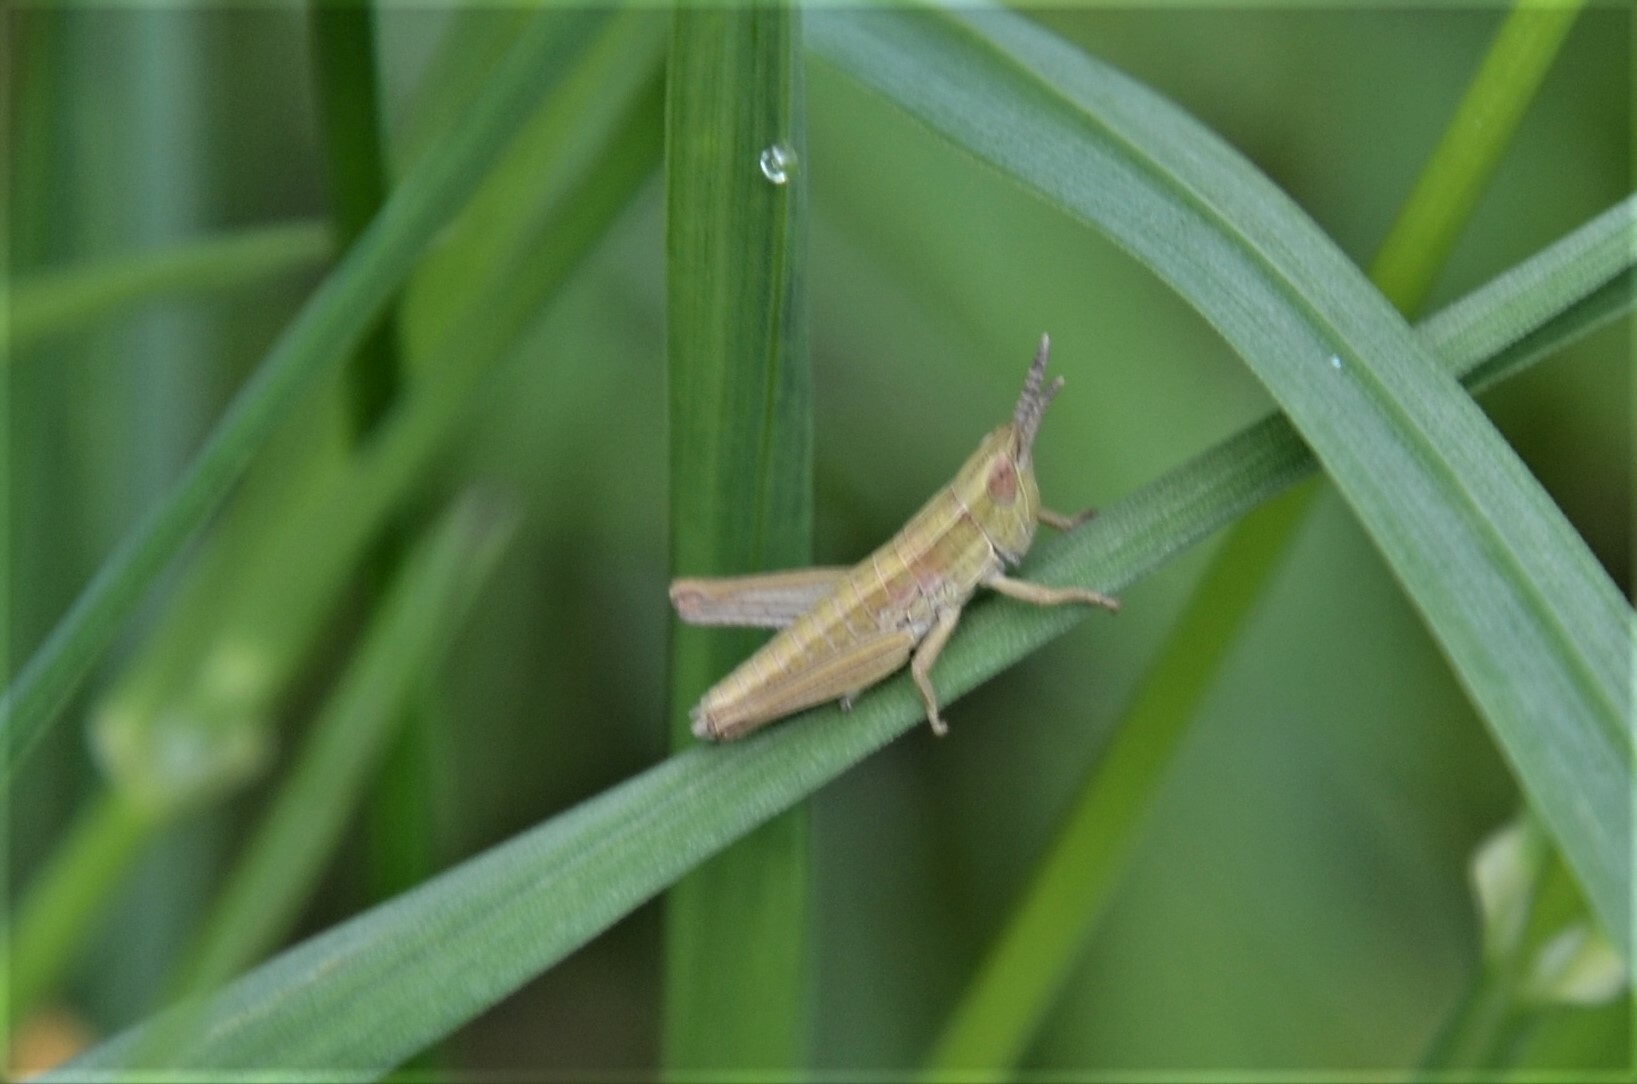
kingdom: Animalia
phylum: Arthropoda
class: Insecta
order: Orthoptera
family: Acrididae
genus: Euthystira
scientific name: Euthystira brachyptera
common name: Small gold grasshopper
